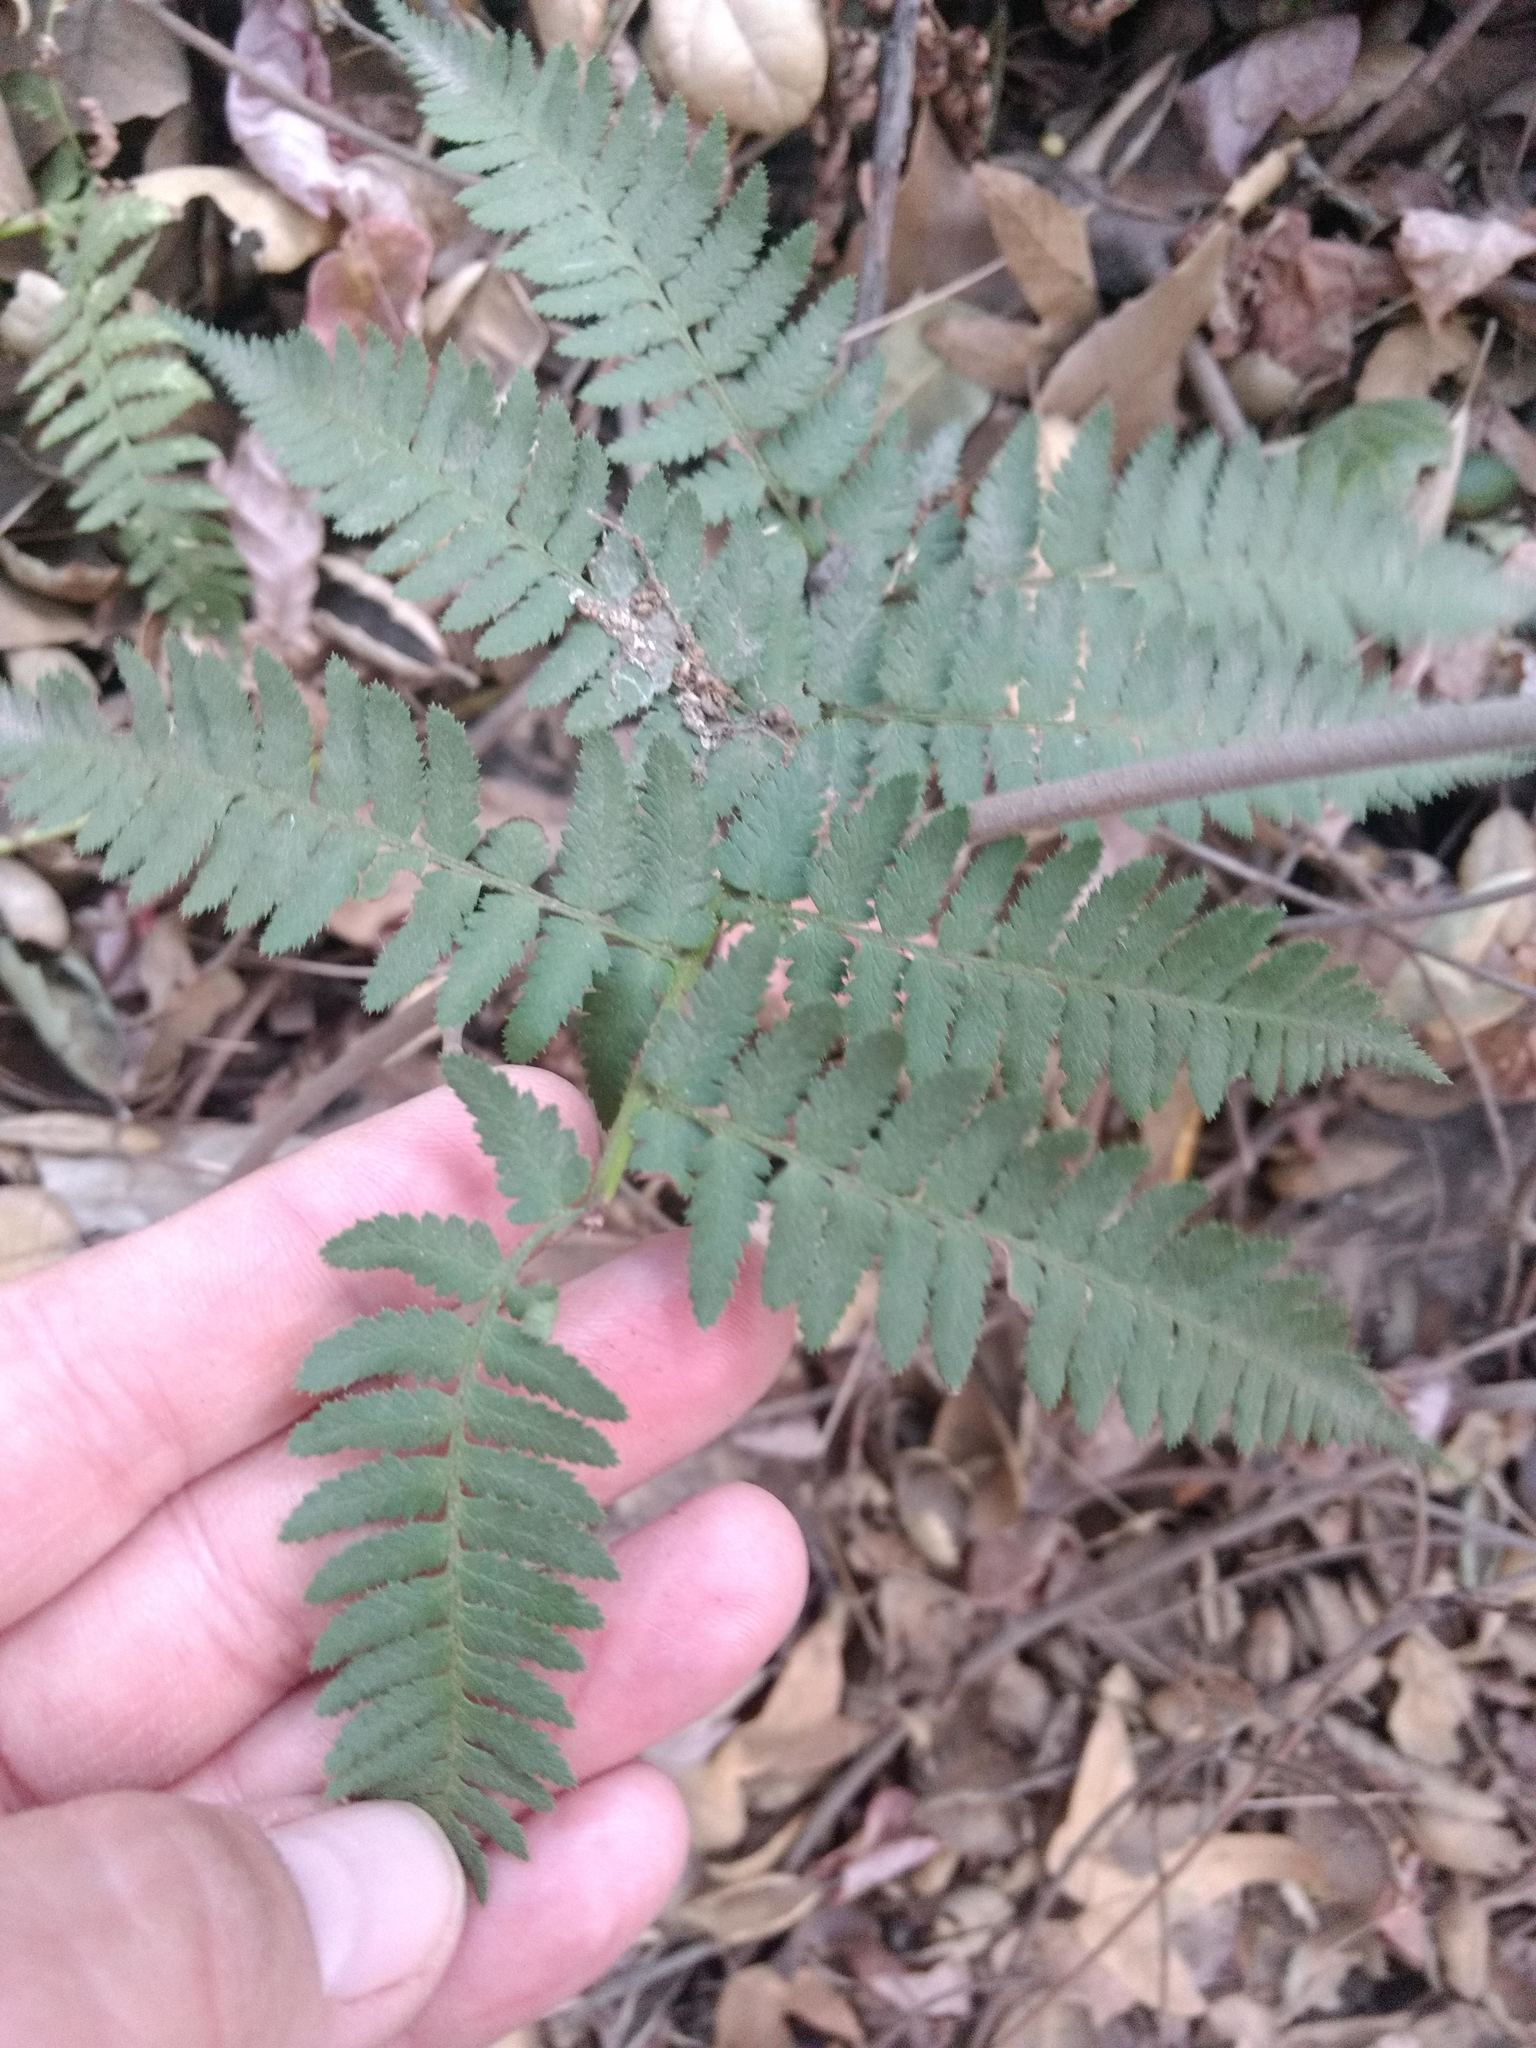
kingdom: Plantae
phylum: Tracheophyta
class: Polypodiopsida
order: Polypodiales
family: Dryopteridaceae
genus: Dryopteris
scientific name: Dryopteris arguta
